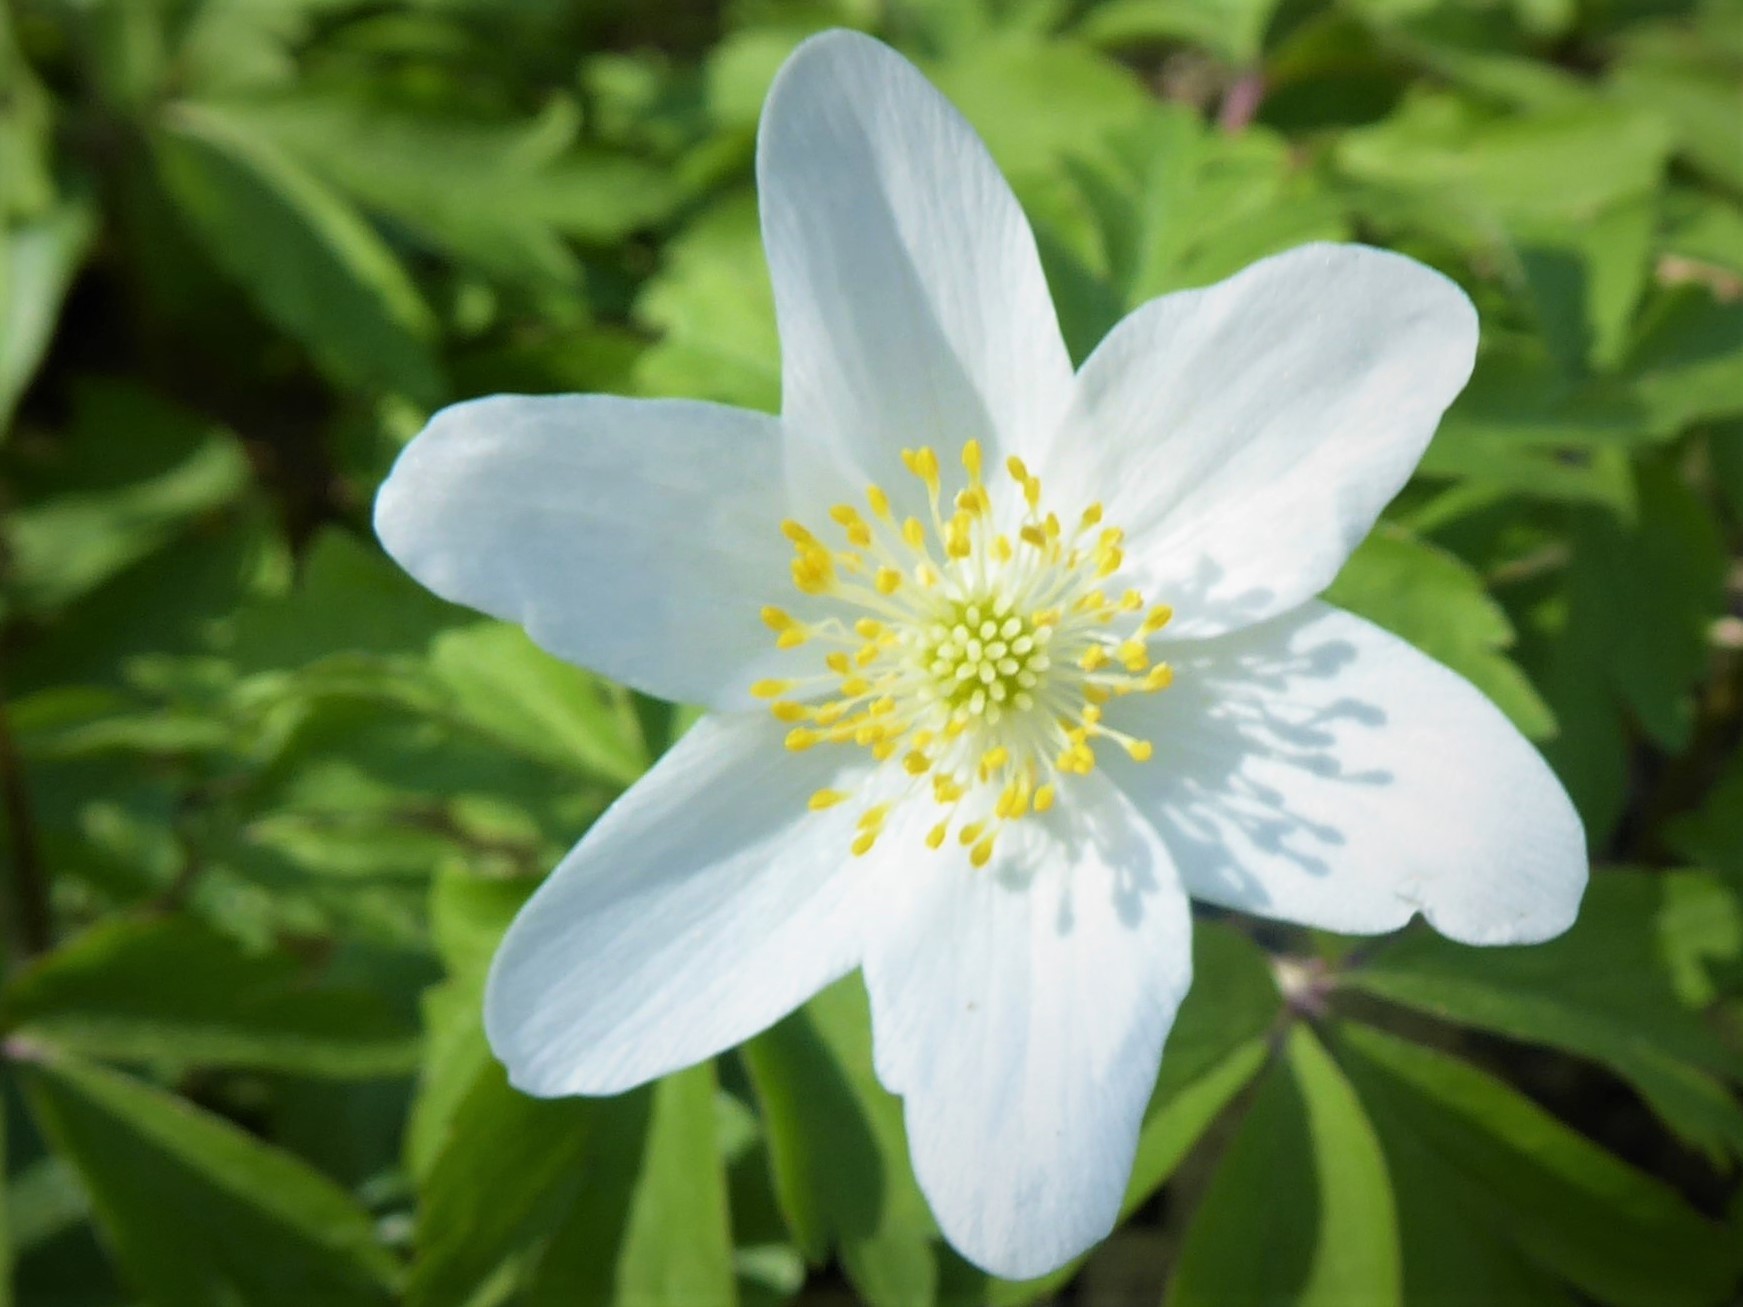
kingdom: Plantae
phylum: Tracheophyta
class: Magnoliopsida
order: Ranunculales
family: Ranunculaceae
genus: Anemone
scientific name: Anemone nemorosa
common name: Wood anemone
